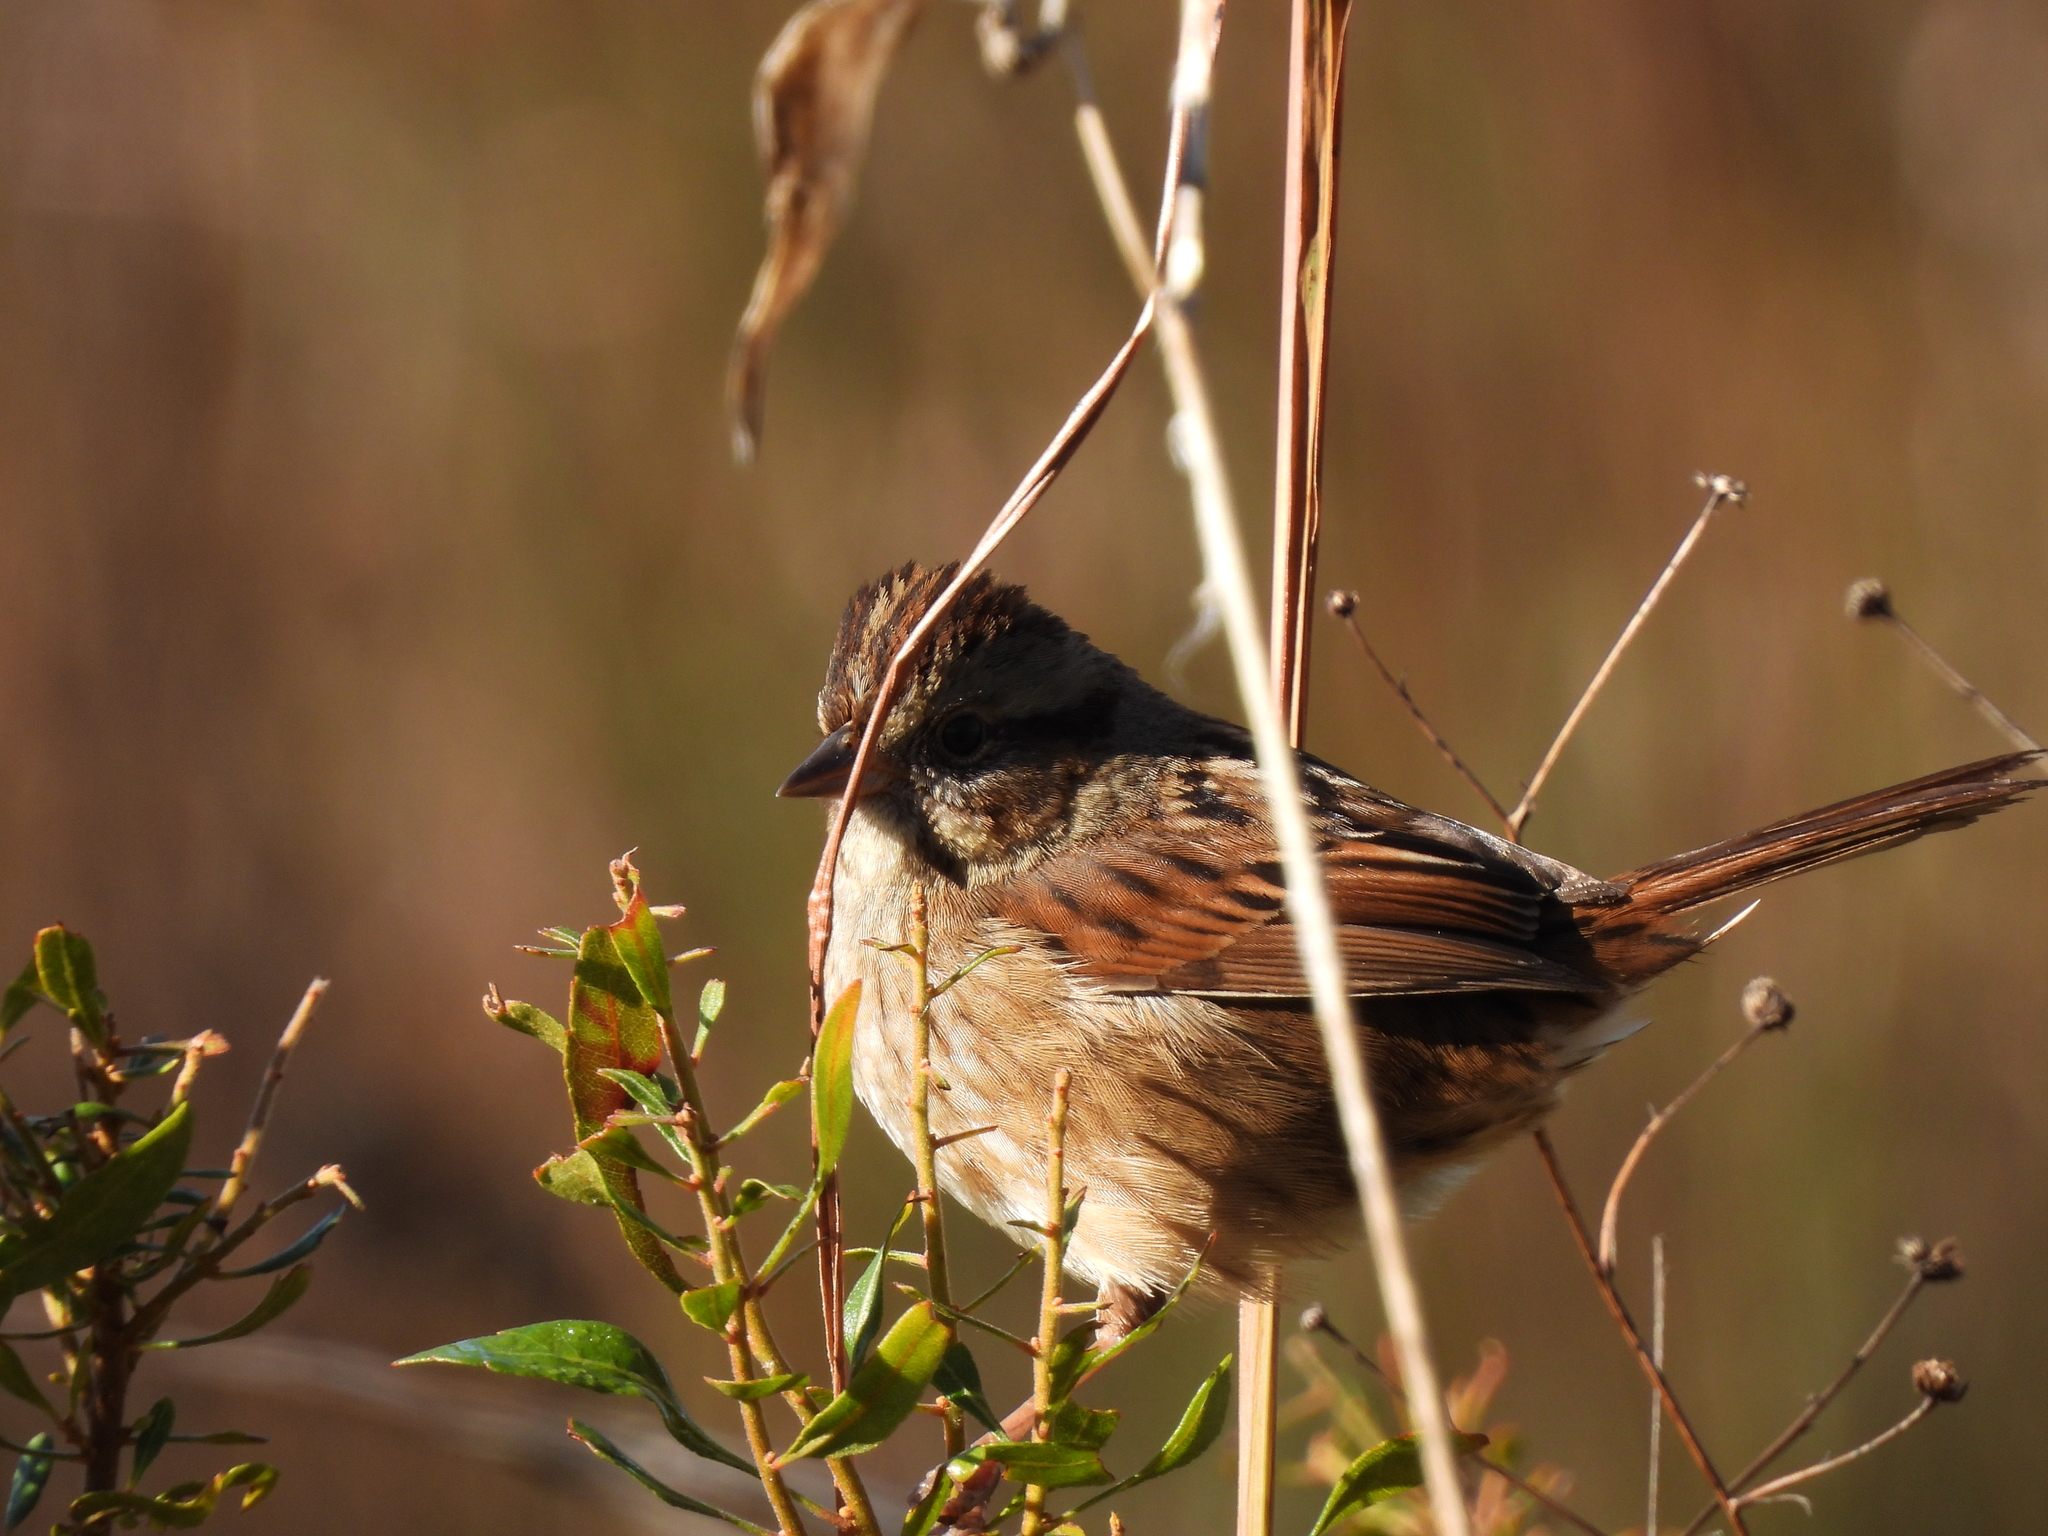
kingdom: Animalia
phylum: Chordata
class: Aves
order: Passeriformes
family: Passerellidae
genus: Melospiza
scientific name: Melospiza georgiana
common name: Swamp sparrow
